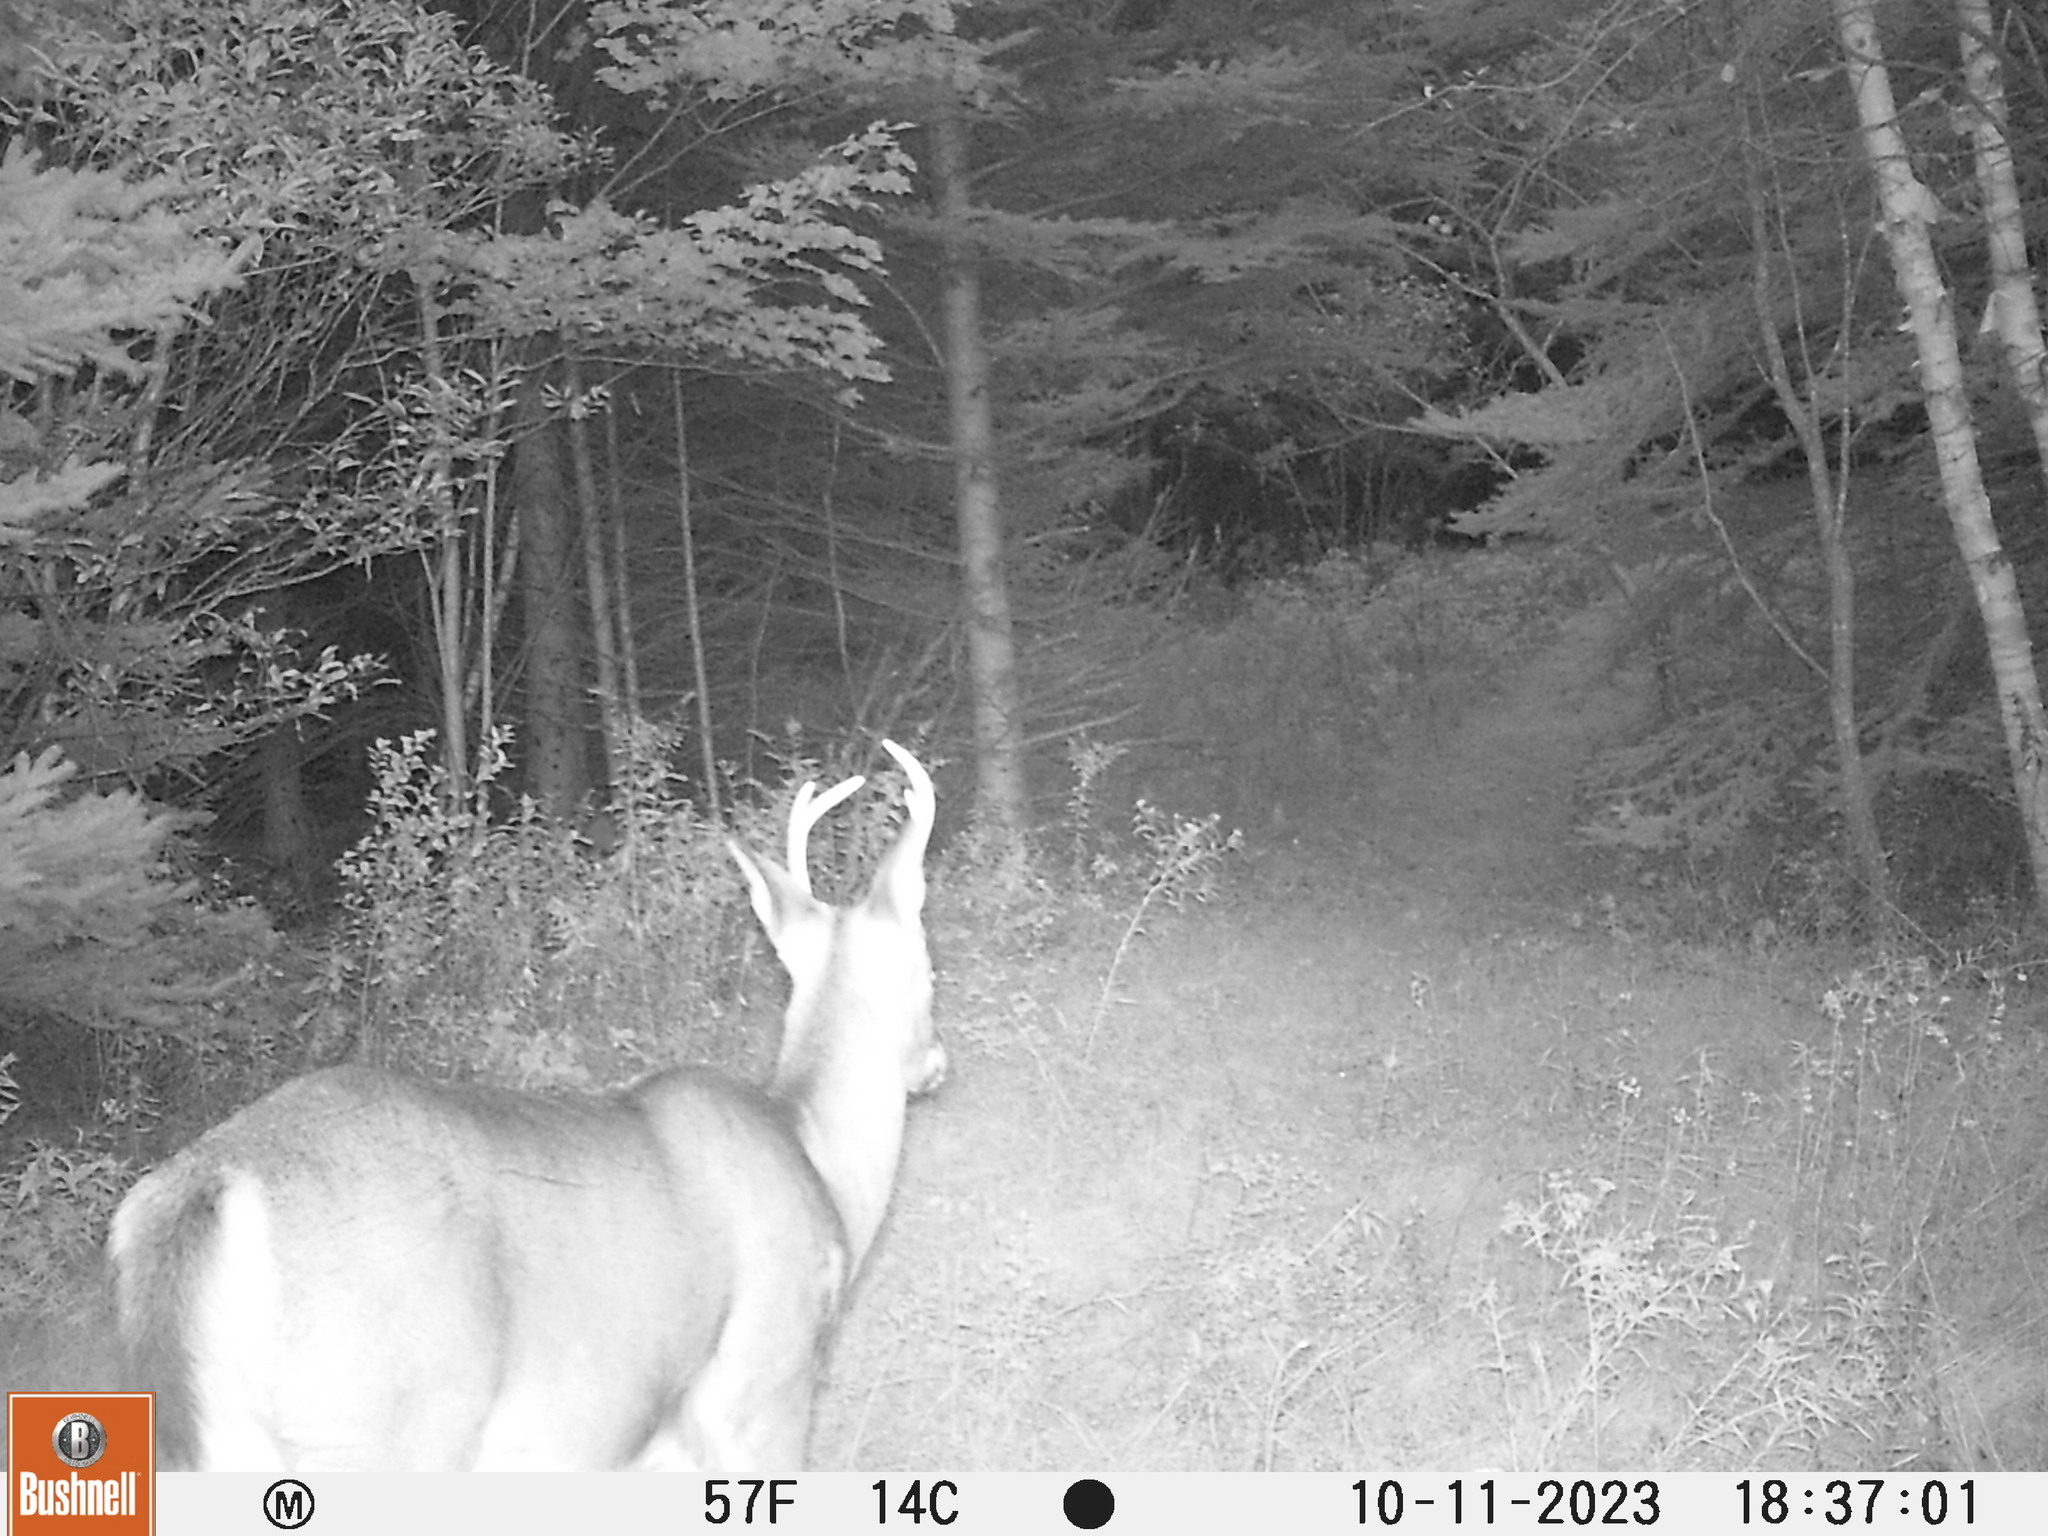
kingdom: Animalia
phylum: Chordata
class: Mammalia
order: Artiodactyla
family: Cervidae
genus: Odocoileus
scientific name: Odocoileus virginianus
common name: White-tailed deer
